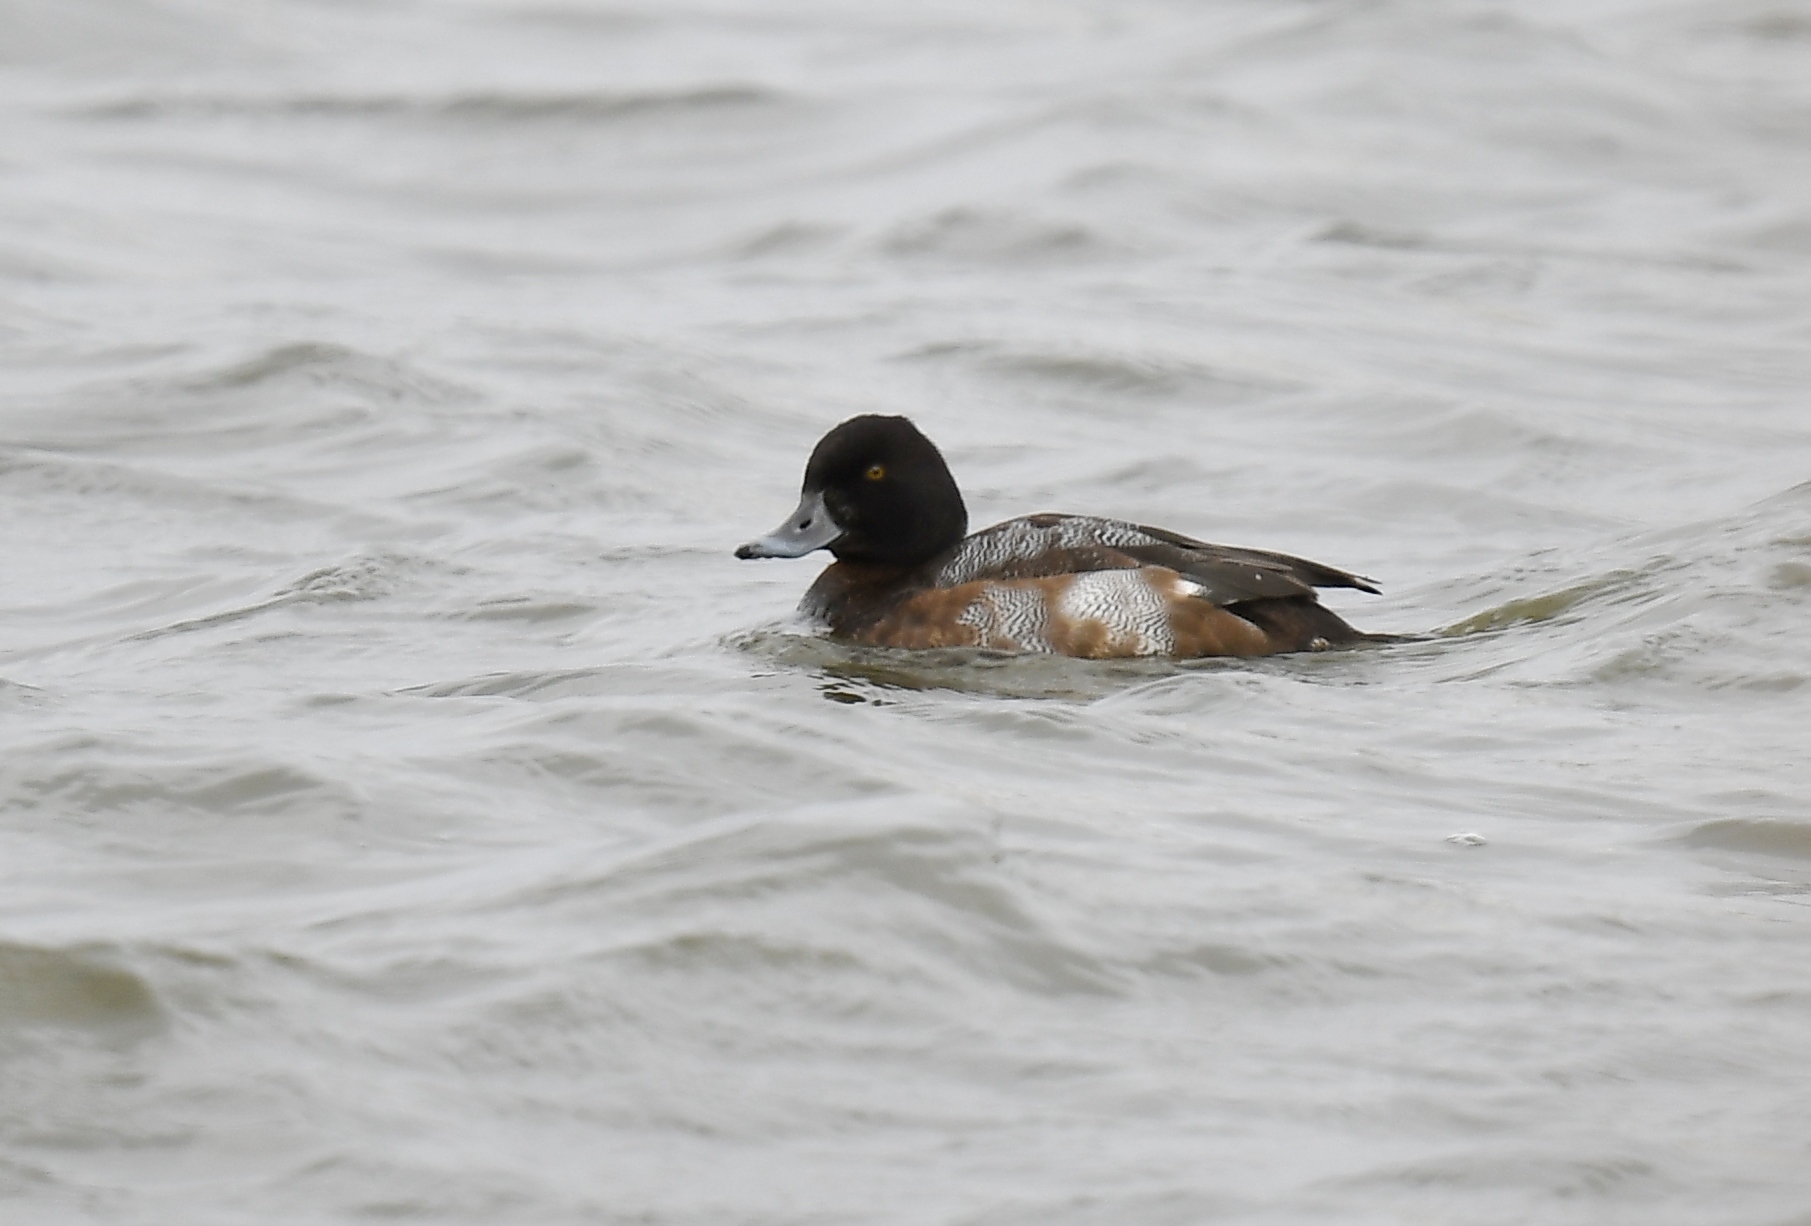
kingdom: Animalia
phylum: Chordata
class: Aves
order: Anseriformes
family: Anatidae
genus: Aythya
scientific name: Aythya marila
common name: Greater scaup
